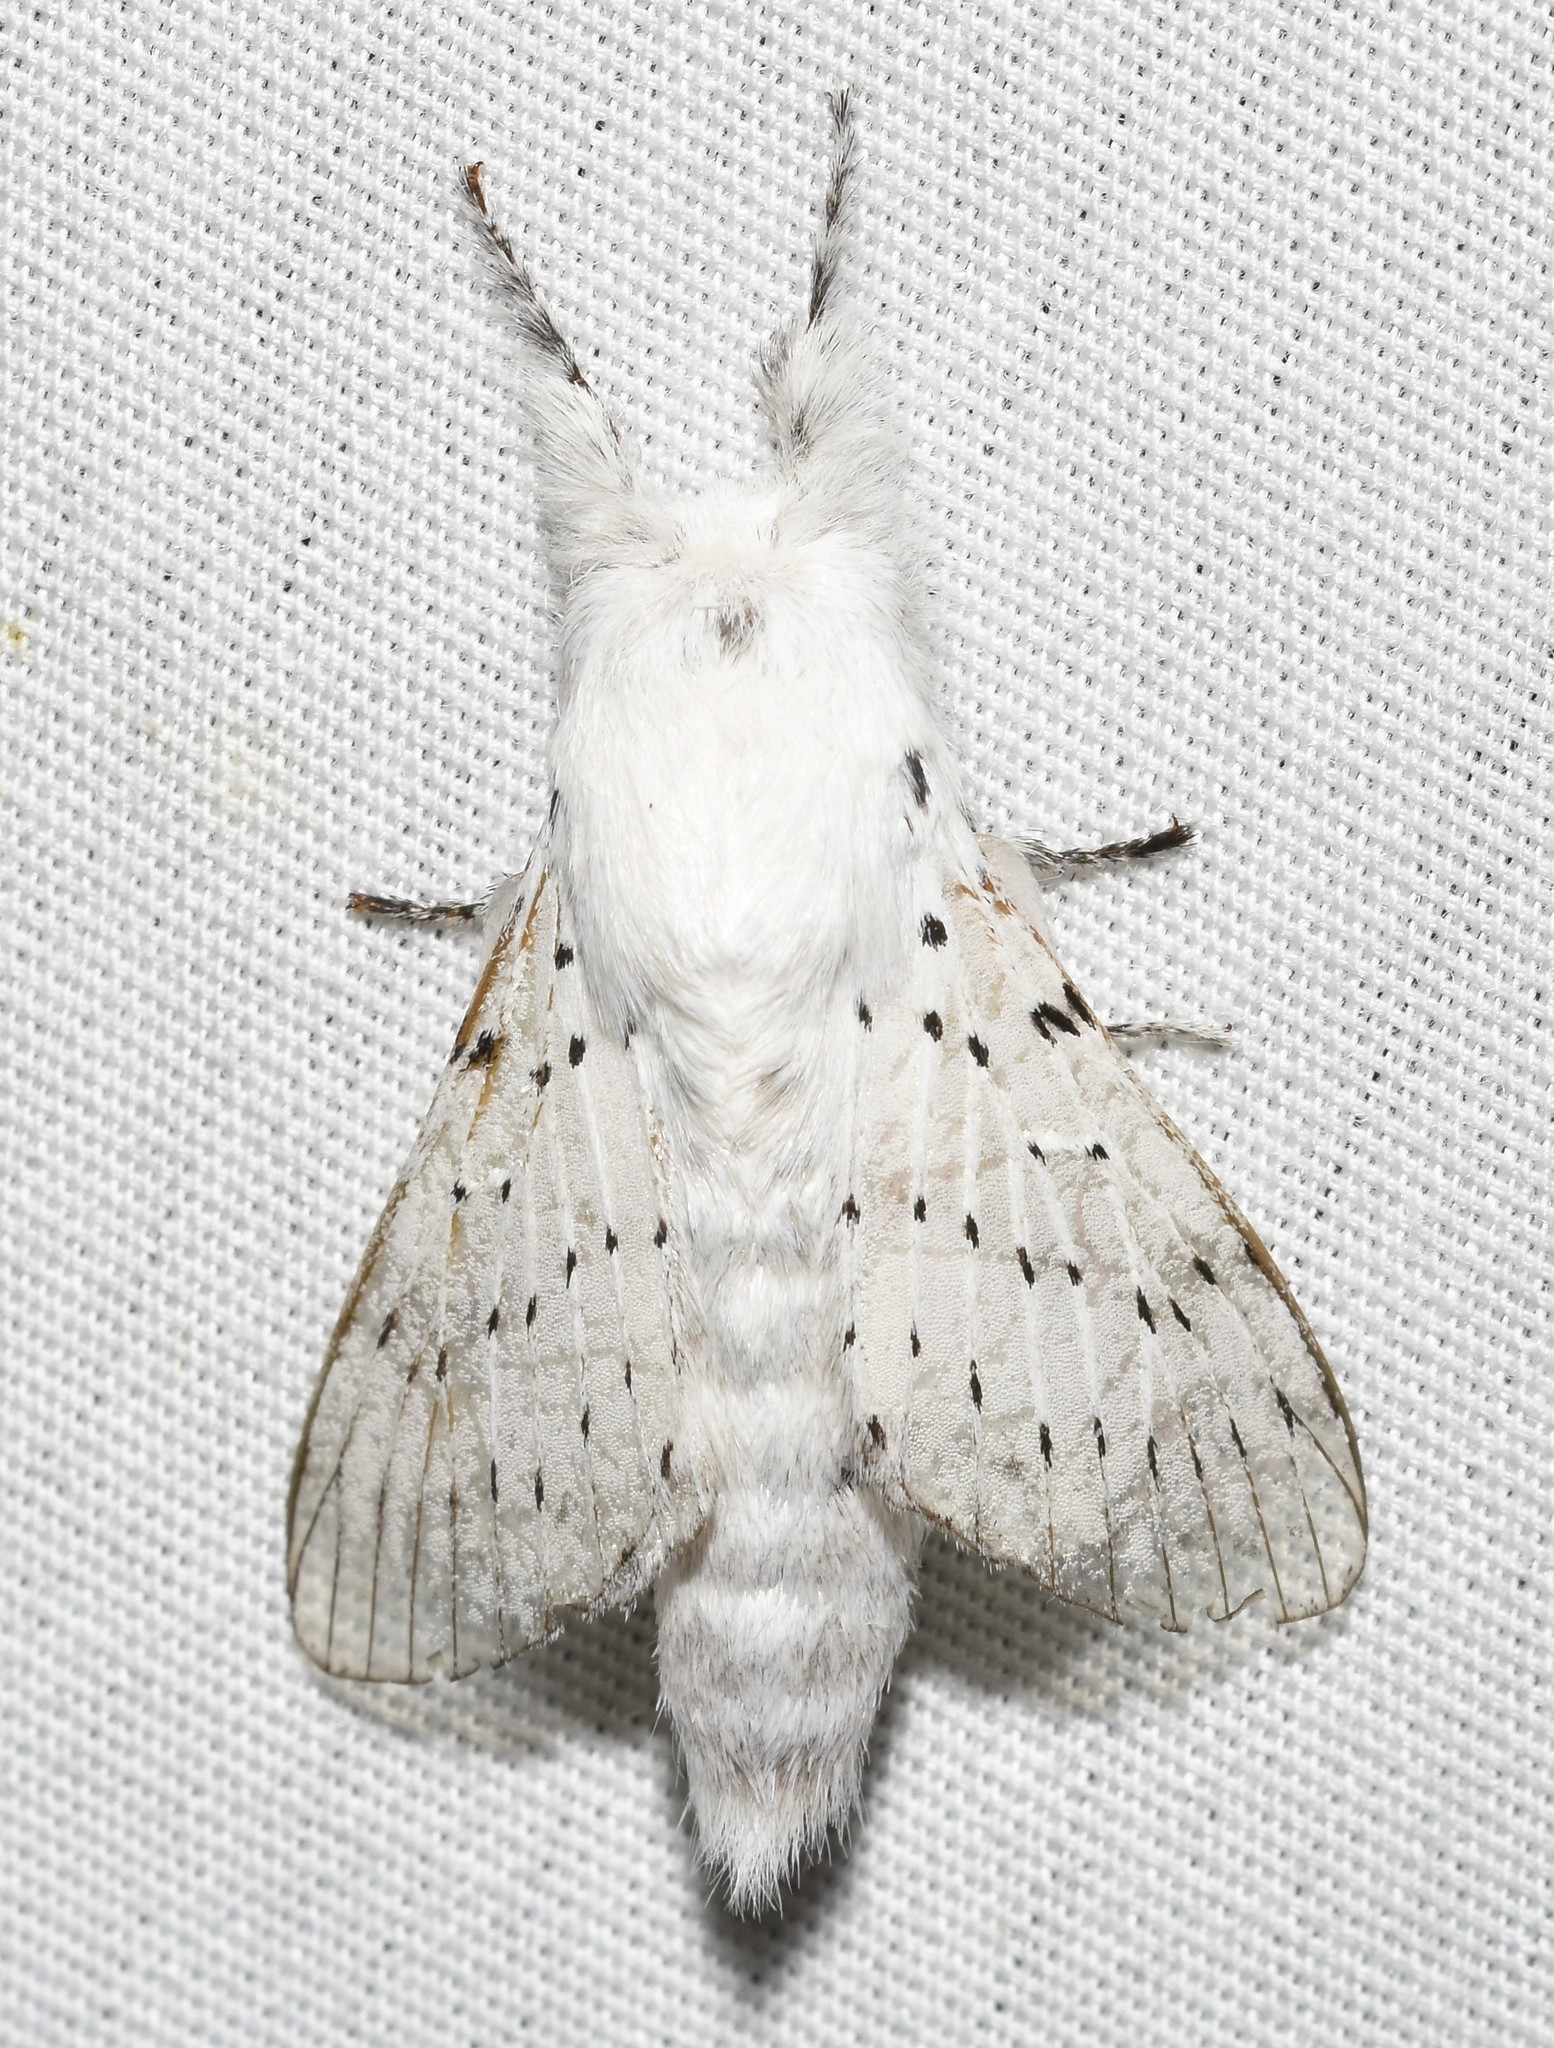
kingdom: Animalia
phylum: Arthropoda
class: Insecta
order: Lepidoptera
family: Lasiocampidae
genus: Artace
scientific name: Artace cribrarius
